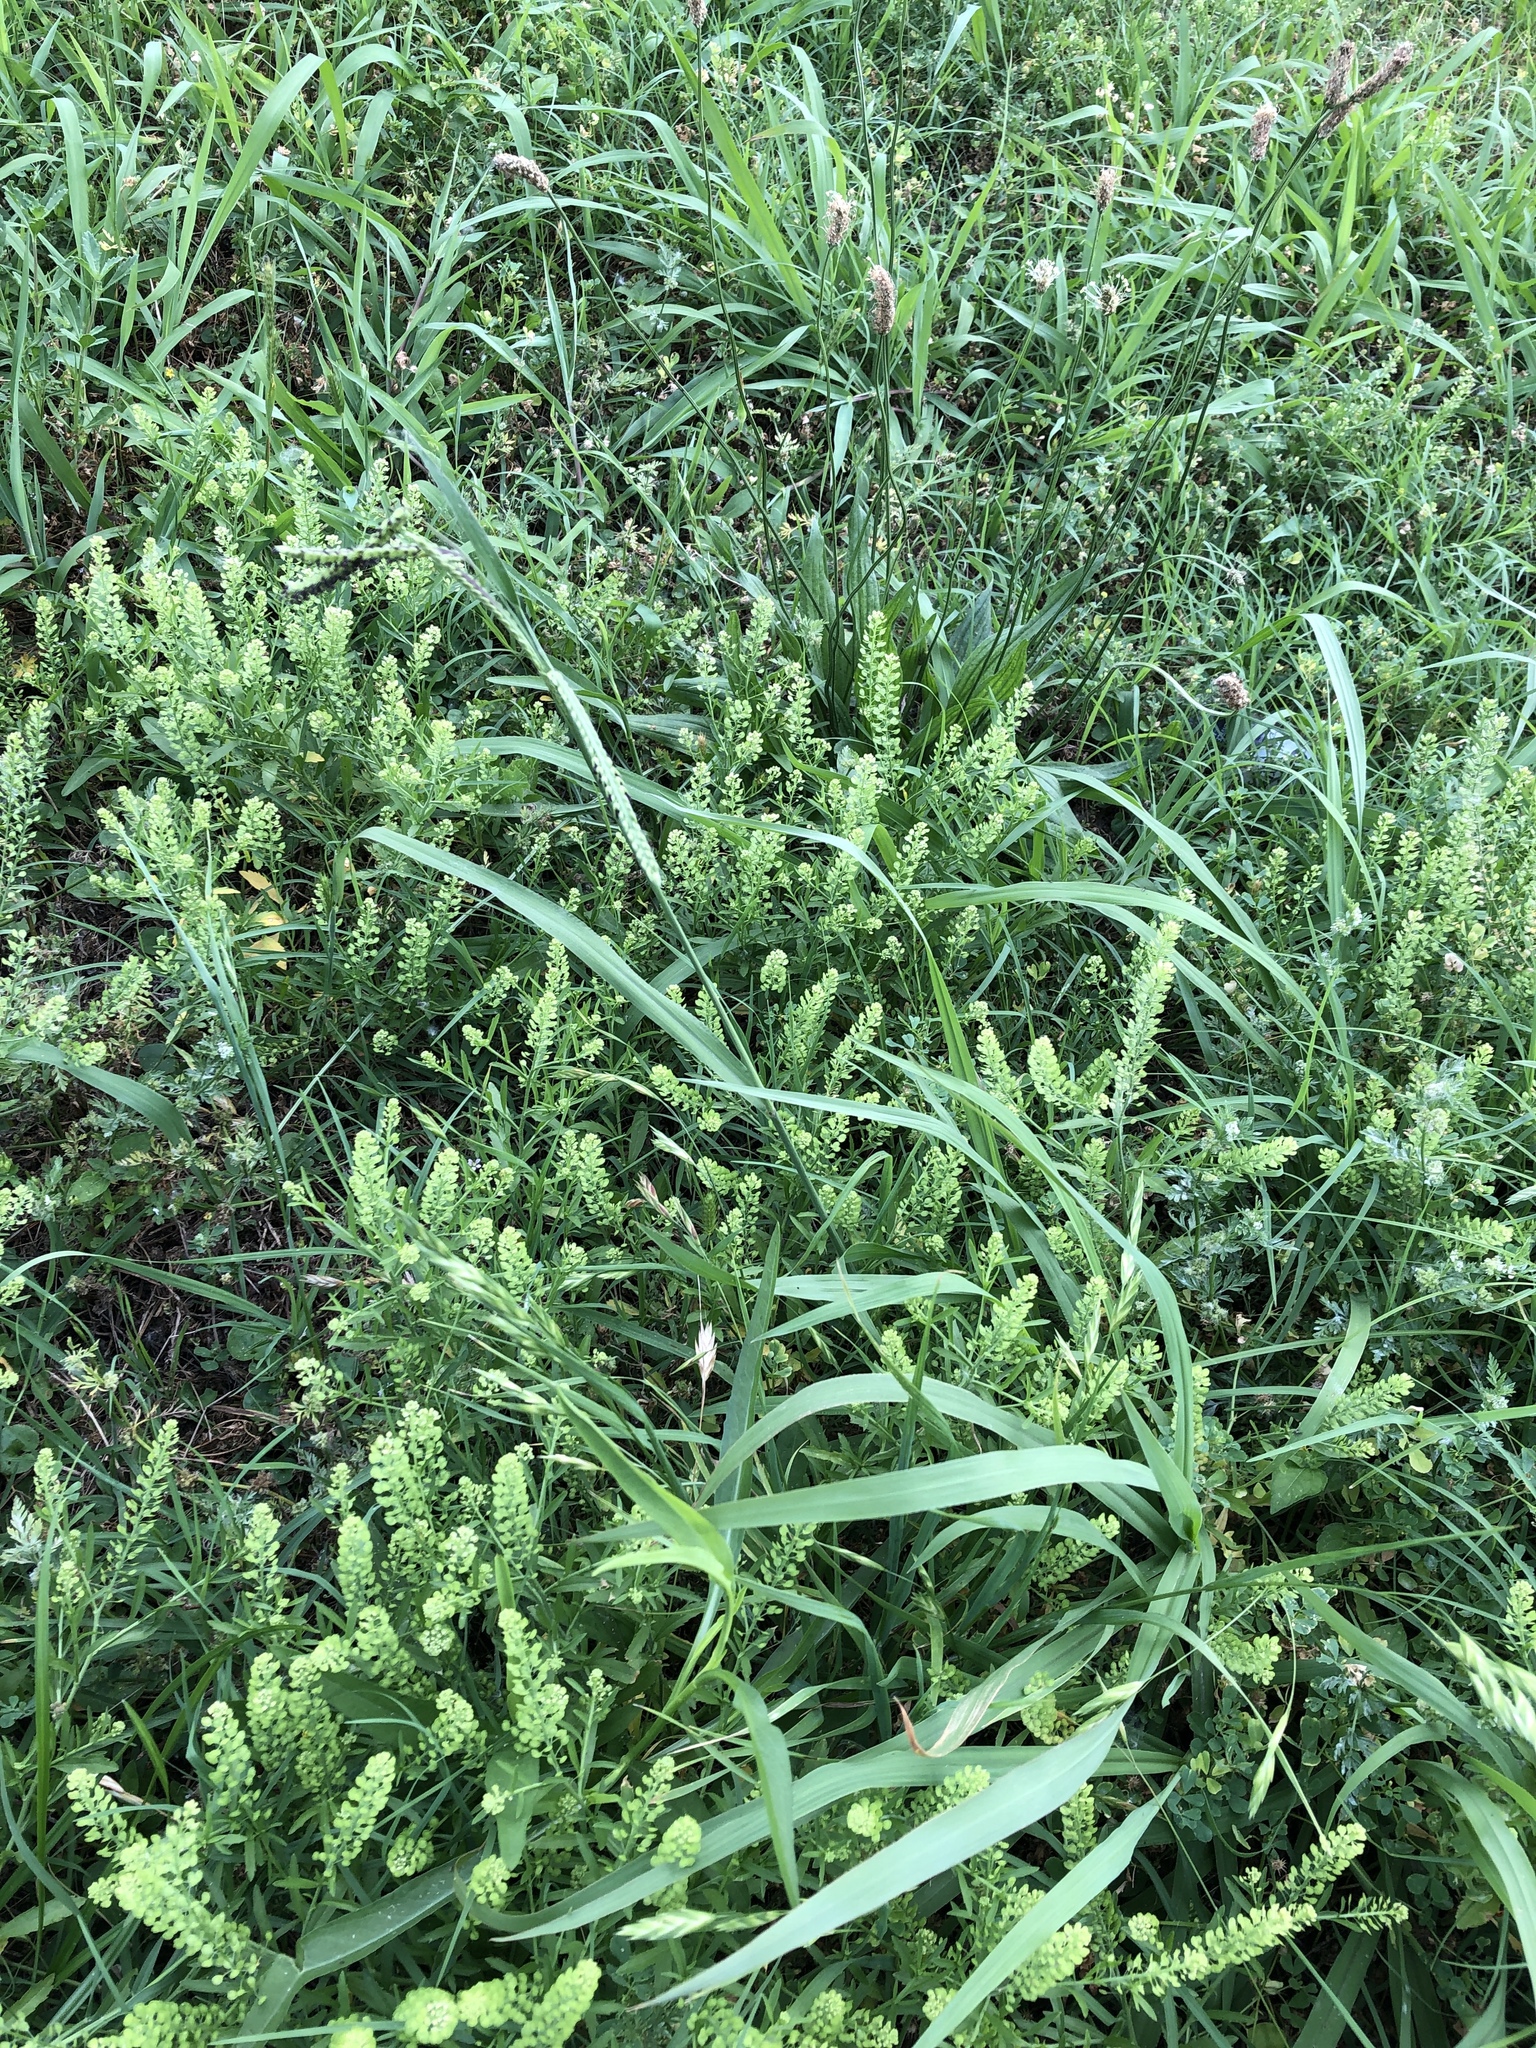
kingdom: Plantae
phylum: Tracheophyta
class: Liliopsida
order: Poales
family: Poaceae
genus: Paspalum
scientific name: Paspalum dilatatum
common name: Dallisgrass
